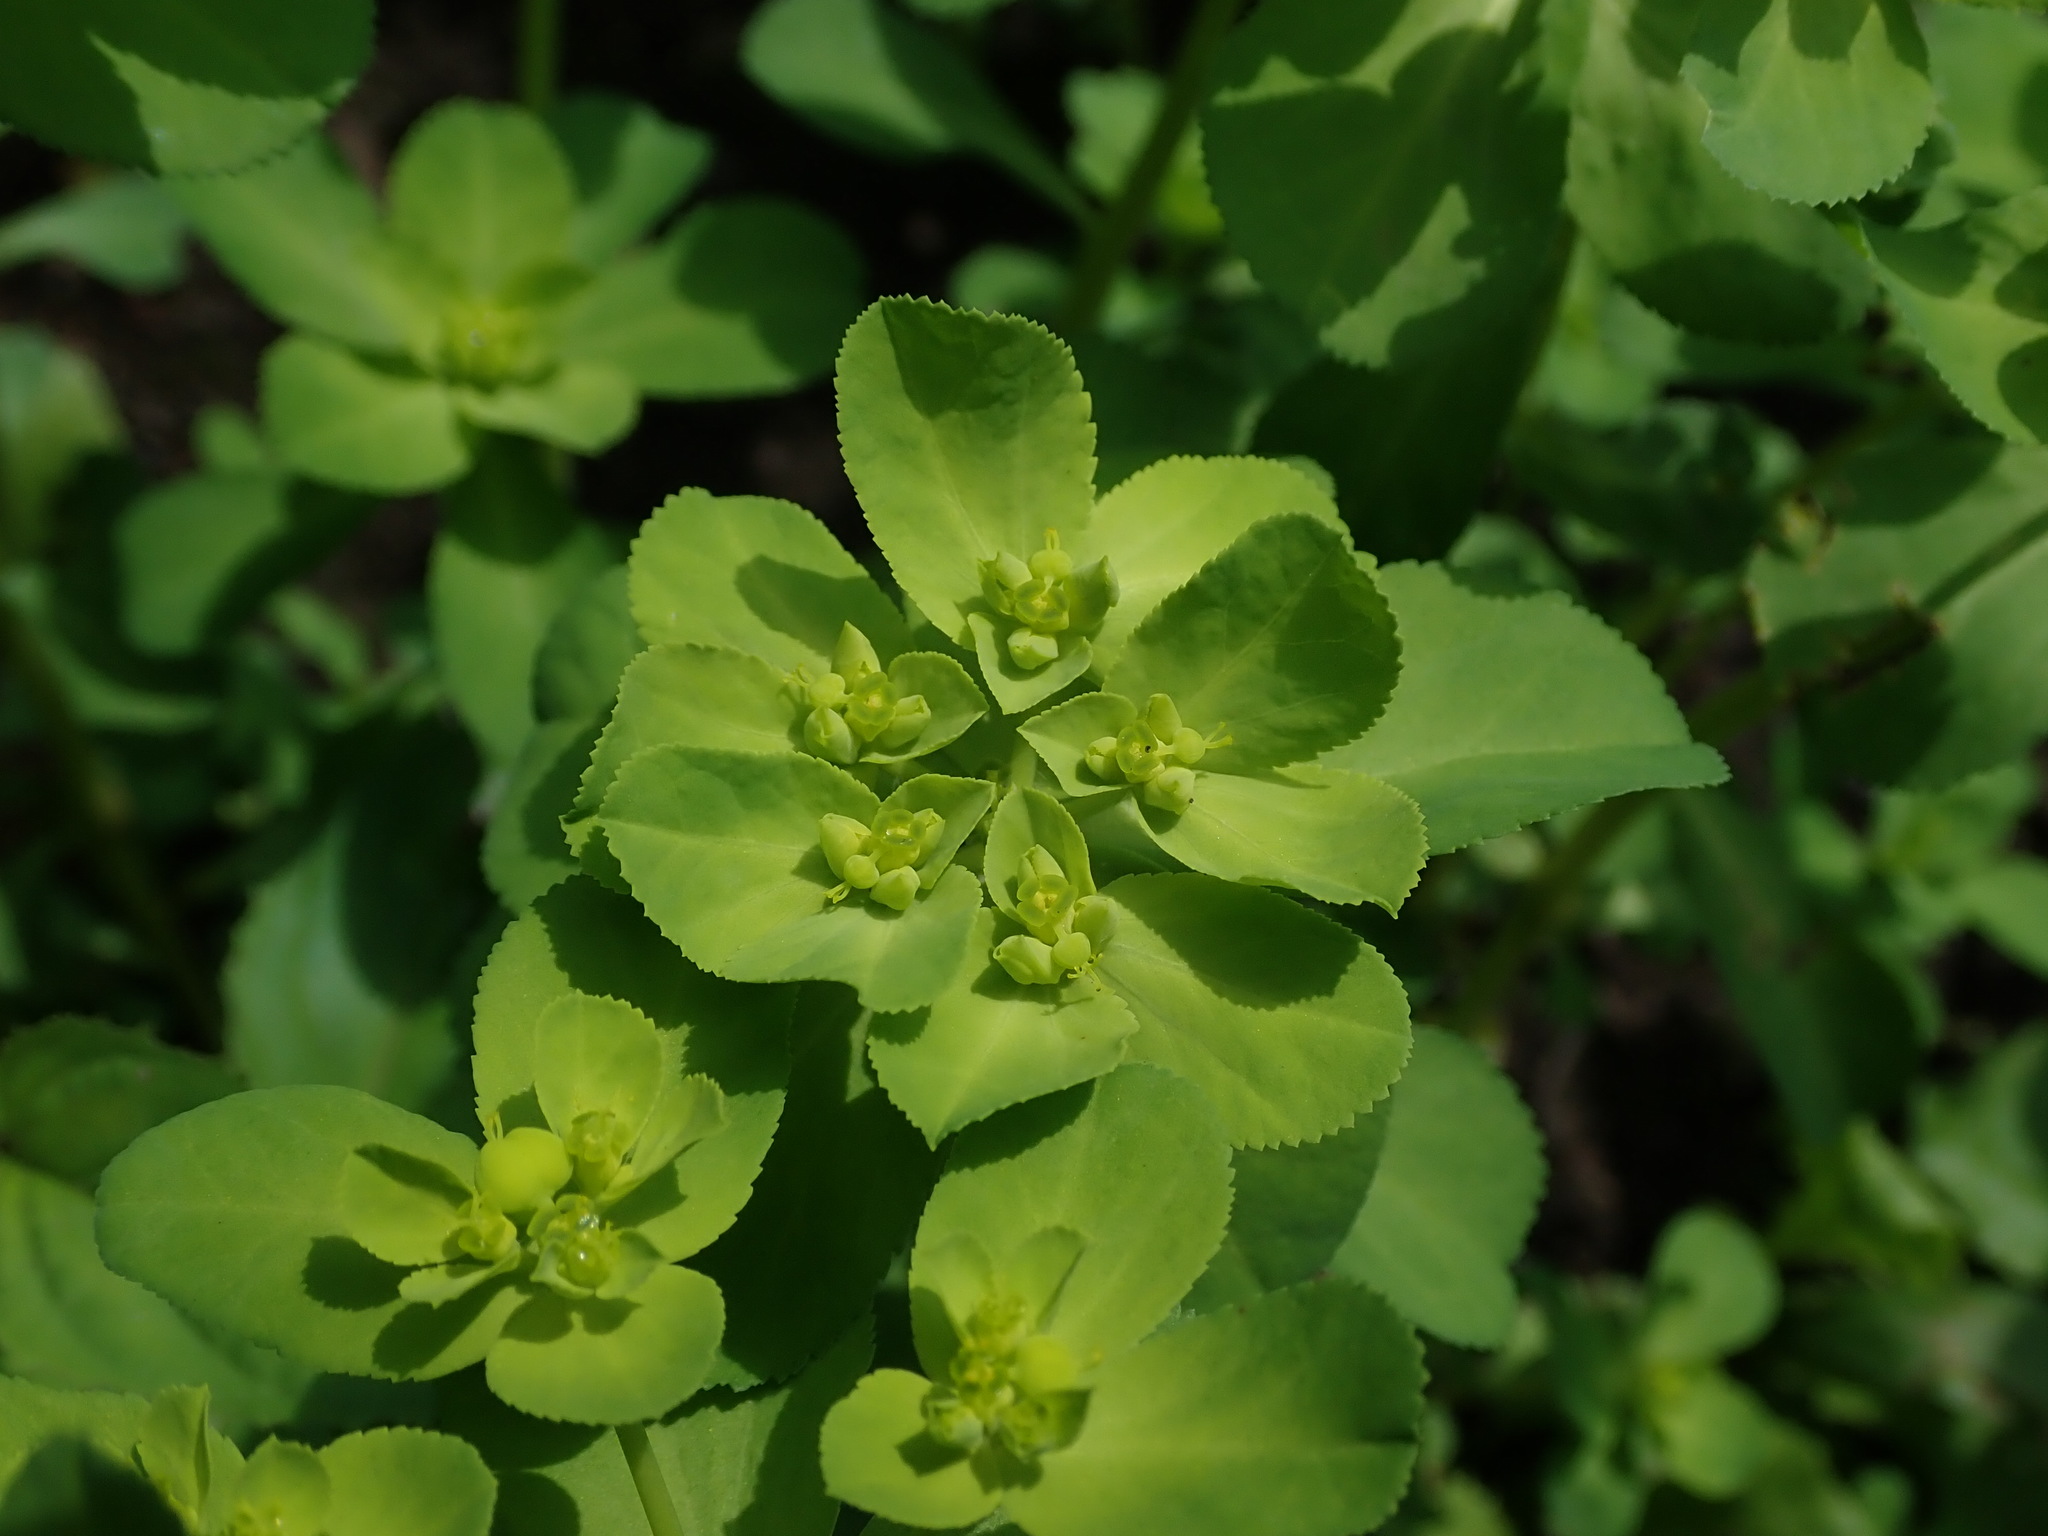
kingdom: Plantae
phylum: Tracheophyta
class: Magnoliopsida
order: Malpighiales
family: Euphorbiaceae
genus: Euphorbia
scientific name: Euphorbia helioscopia
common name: Sun spurge
